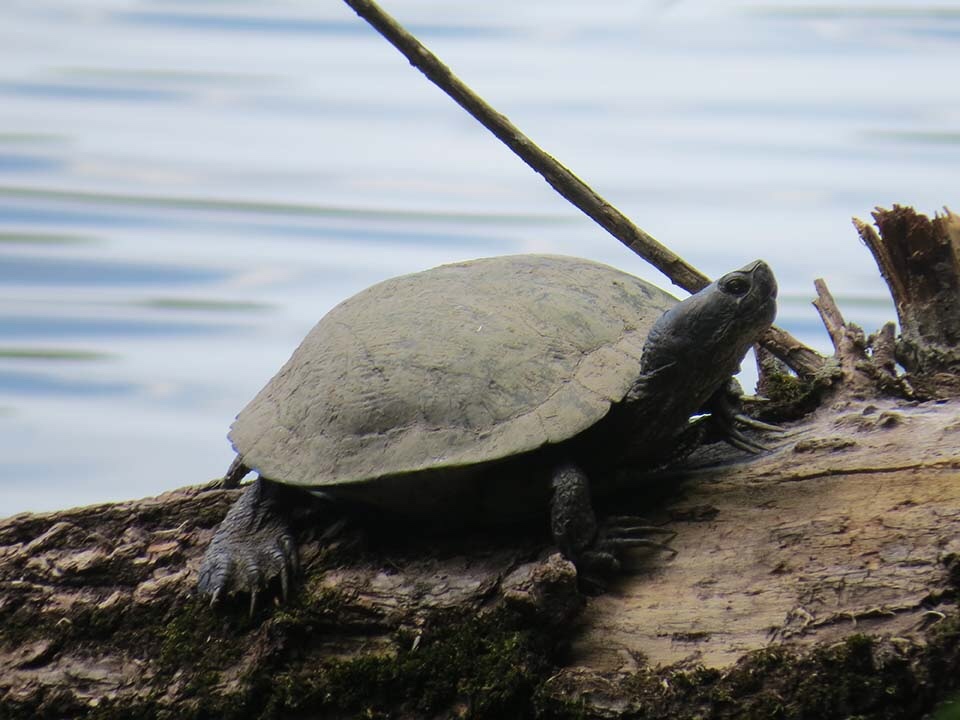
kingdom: Animalia
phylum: Chordata
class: Testudines
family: Emydidae
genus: Trachemys
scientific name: Trachemys scripta
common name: Slider
